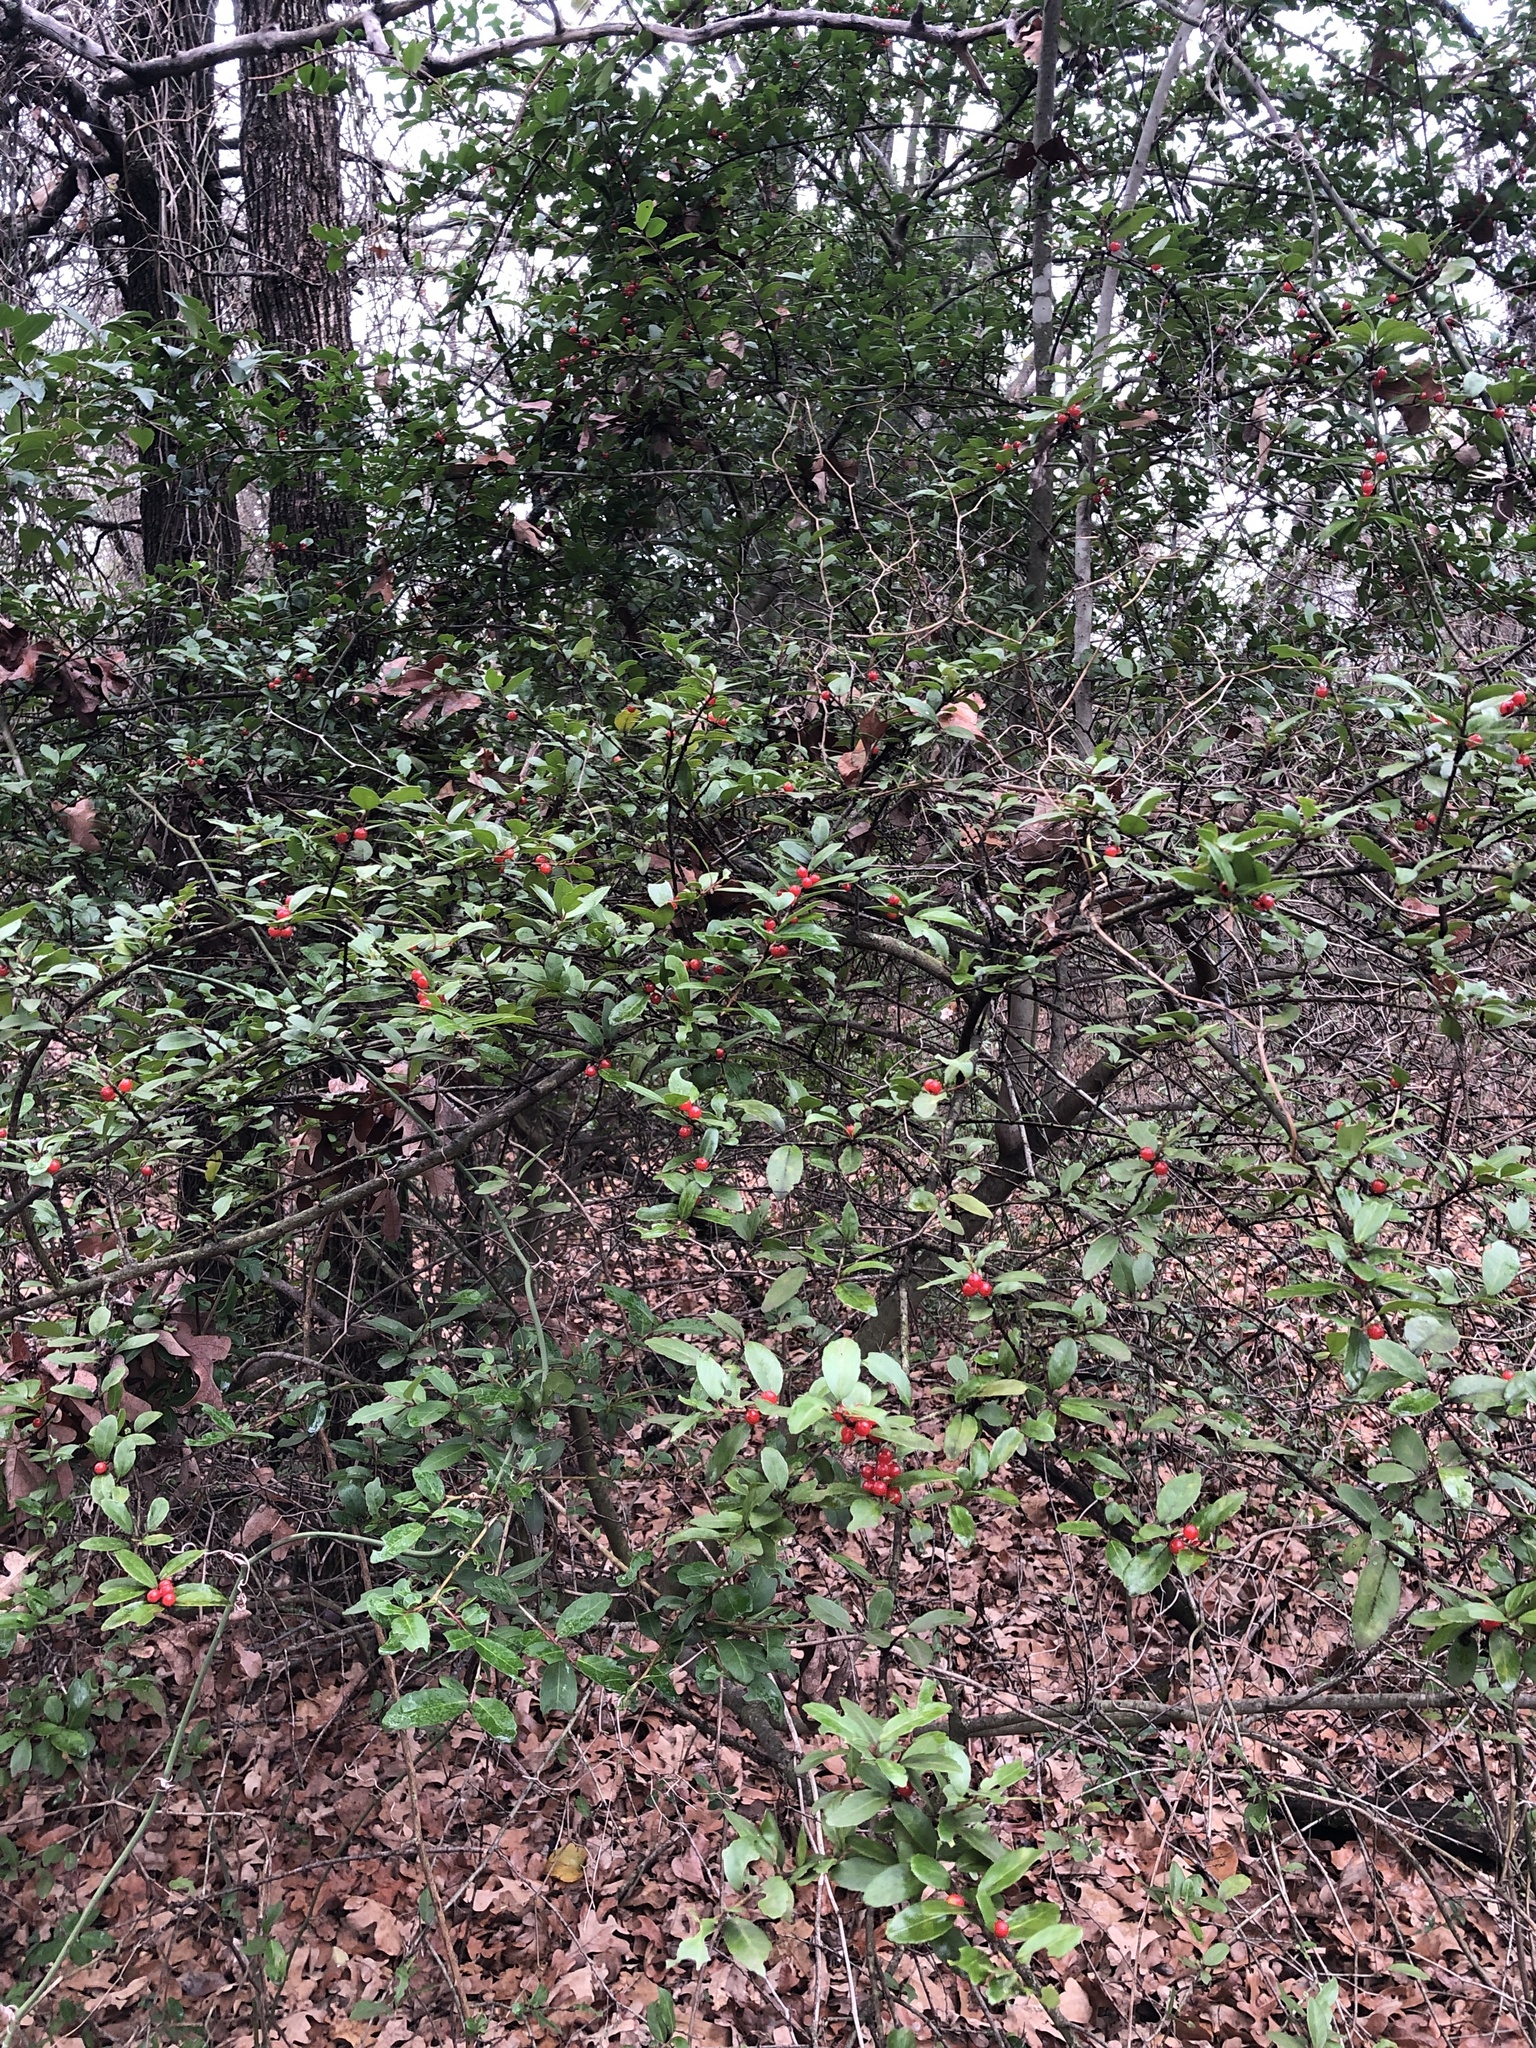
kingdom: Plantae
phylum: Tracheophyta
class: Magnoliopsida
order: Aquifoliales
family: Aquifoliaceae
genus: Ilex
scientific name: Ilex vomitoria
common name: Yaupon holly
